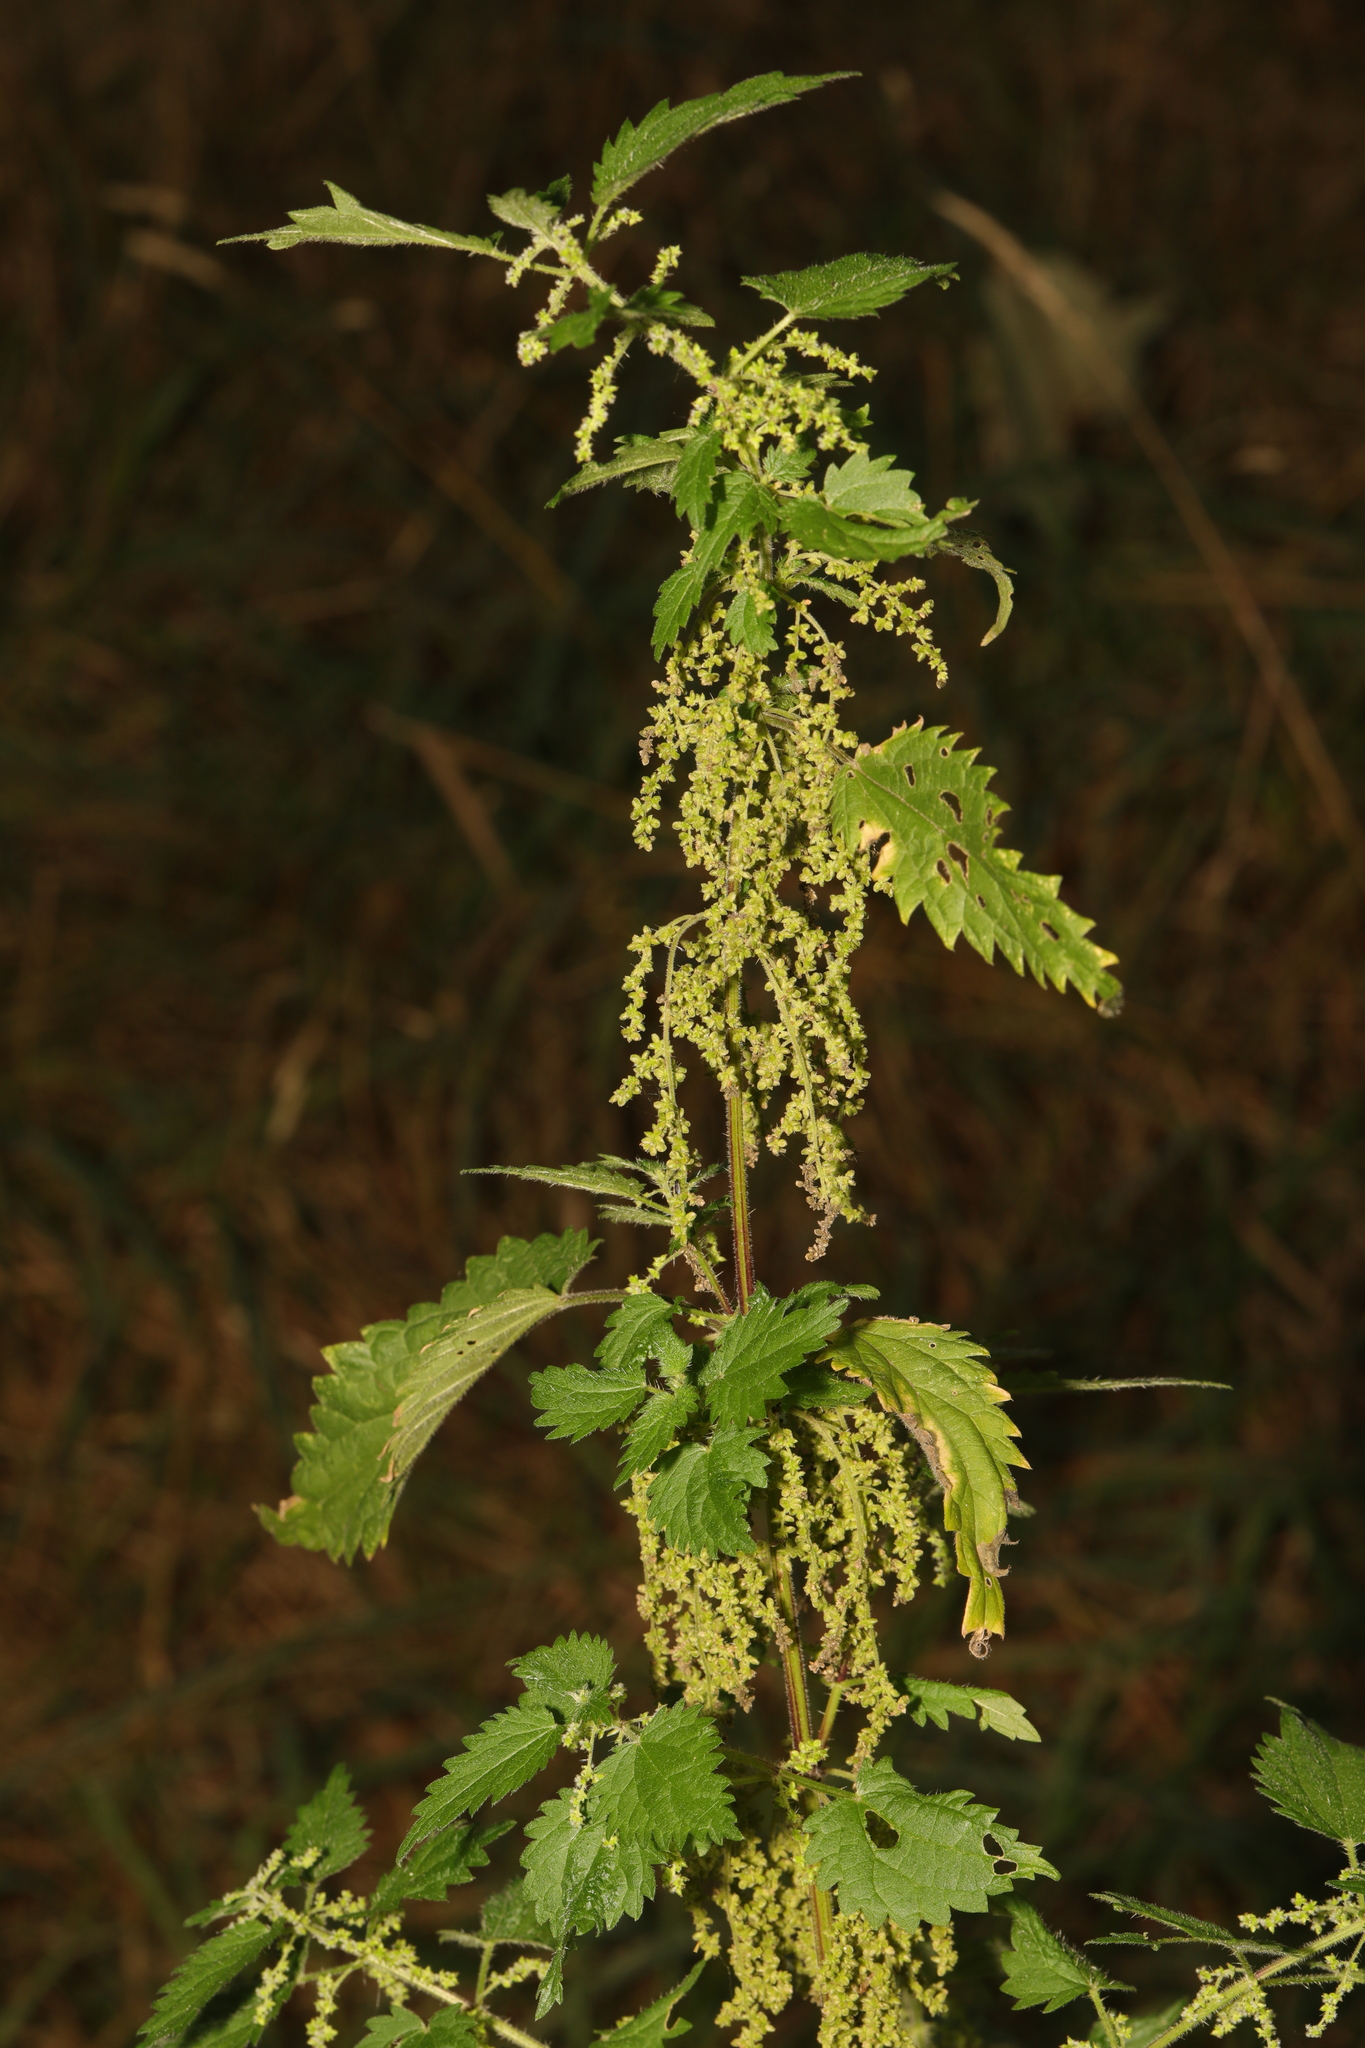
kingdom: Plantae
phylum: Tracheophyta
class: Magnoliopsida
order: Rosales
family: Urticaceae
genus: Urtica
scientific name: Urtica dioica
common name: Common nettle
